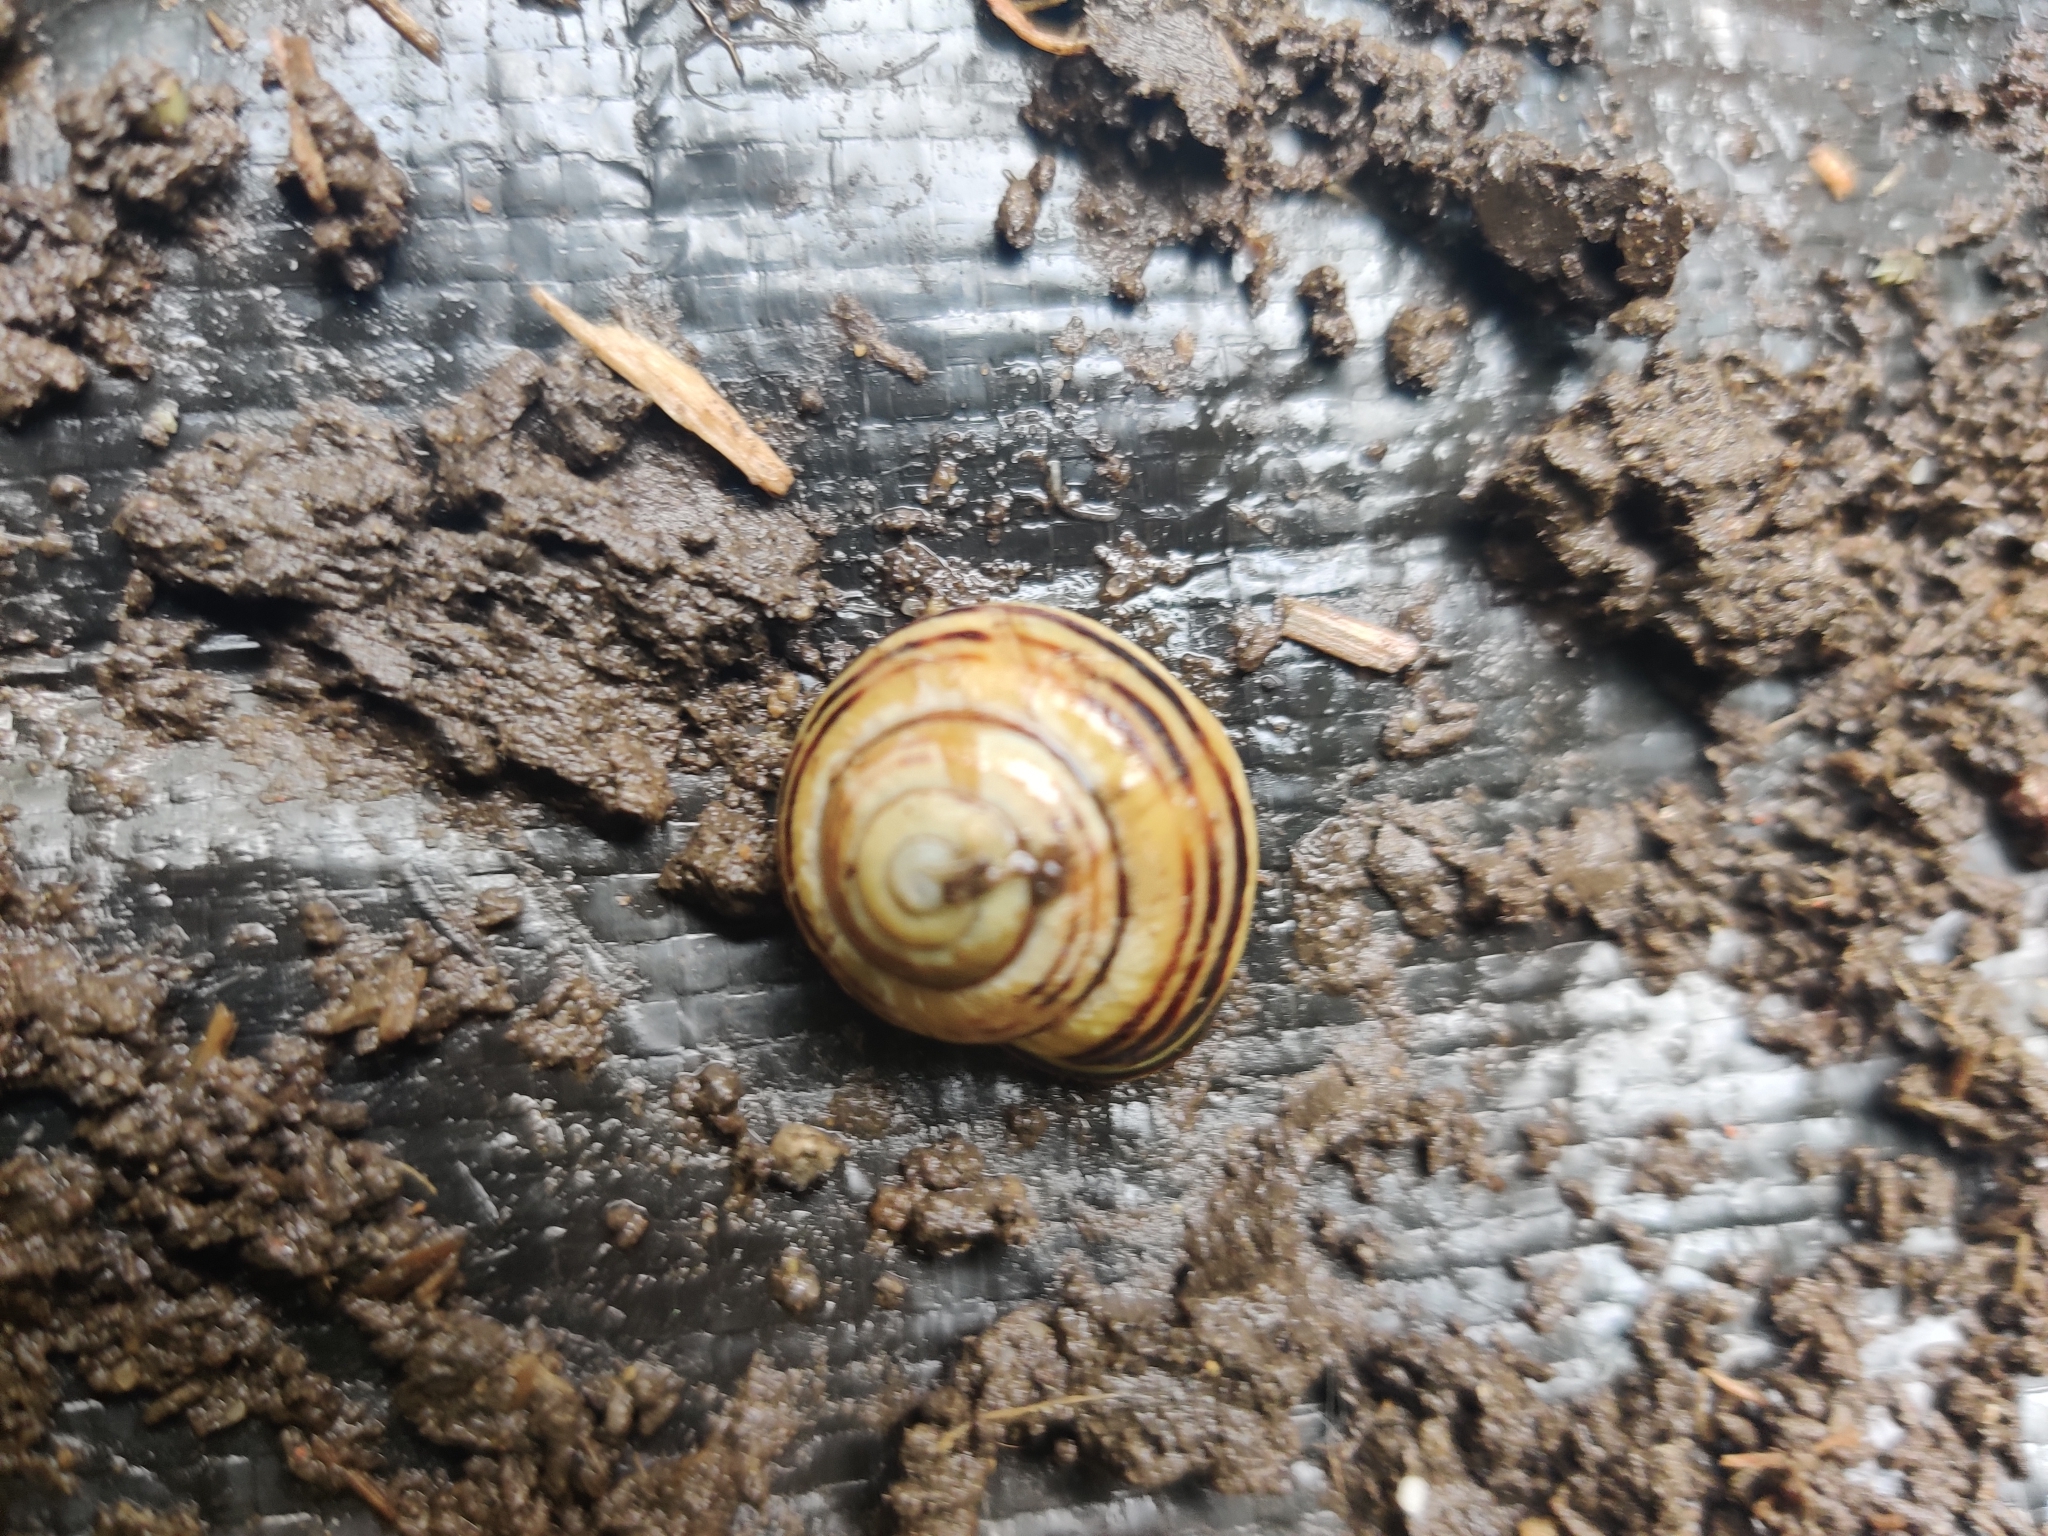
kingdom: Animalia
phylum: Mollusca
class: Gastropoda
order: Stylommatophora
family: Helicidae
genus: Cepaea
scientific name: Cepaea nemoralis
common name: Grovesnail
